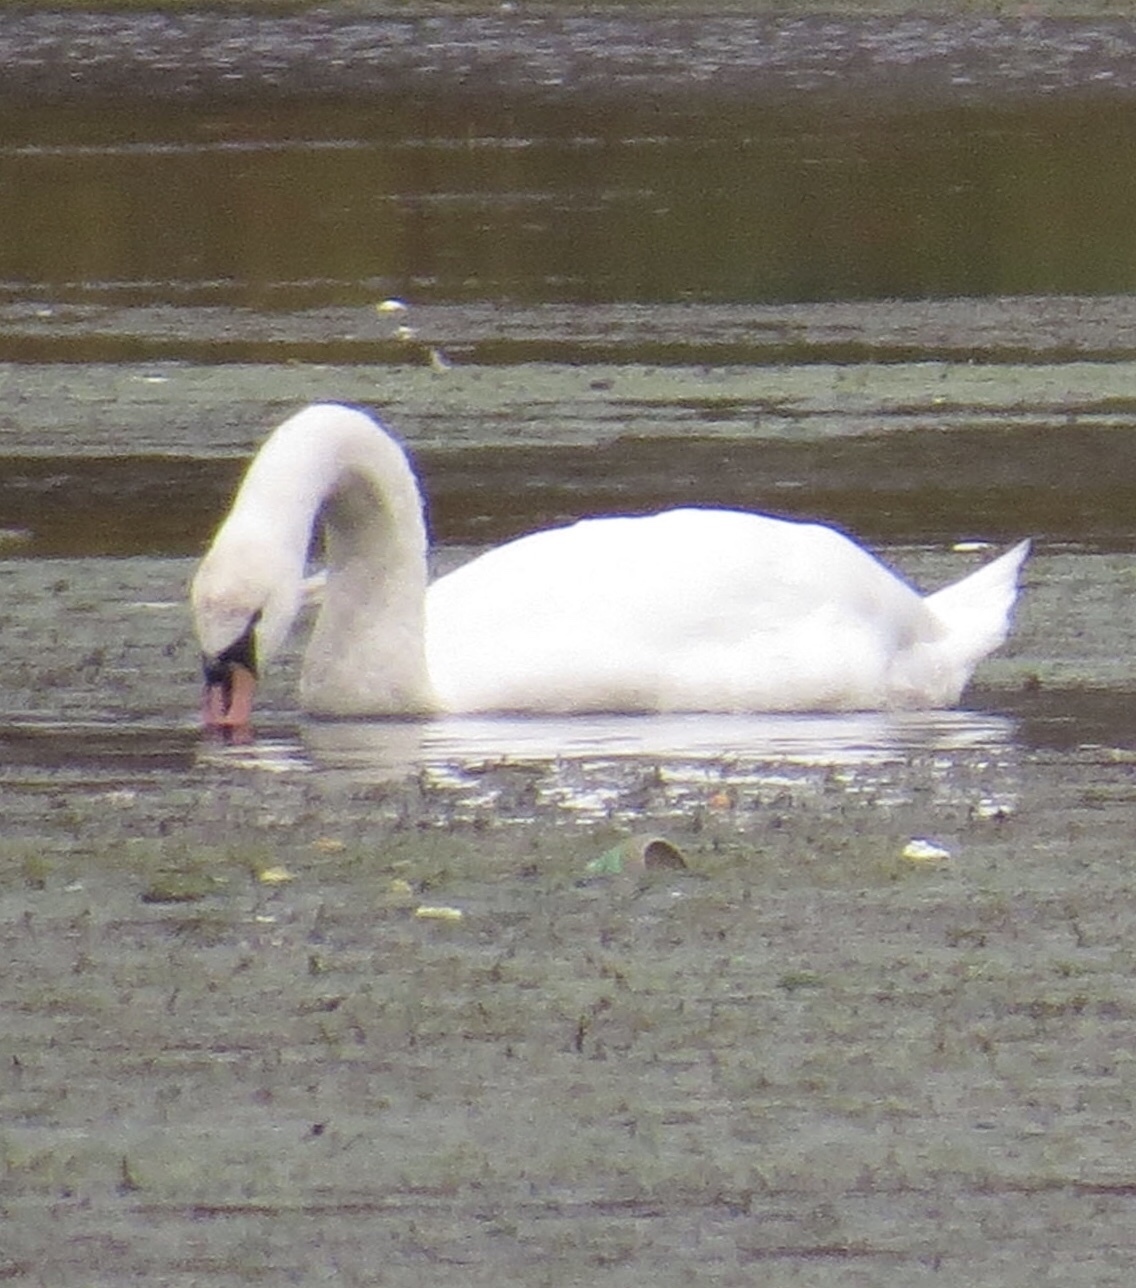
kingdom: Animalia
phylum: Chordata
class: Aves
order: Anseriformes
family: Anatidae
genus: Cygnus
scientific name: Cygnus olor
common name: Mute swan
